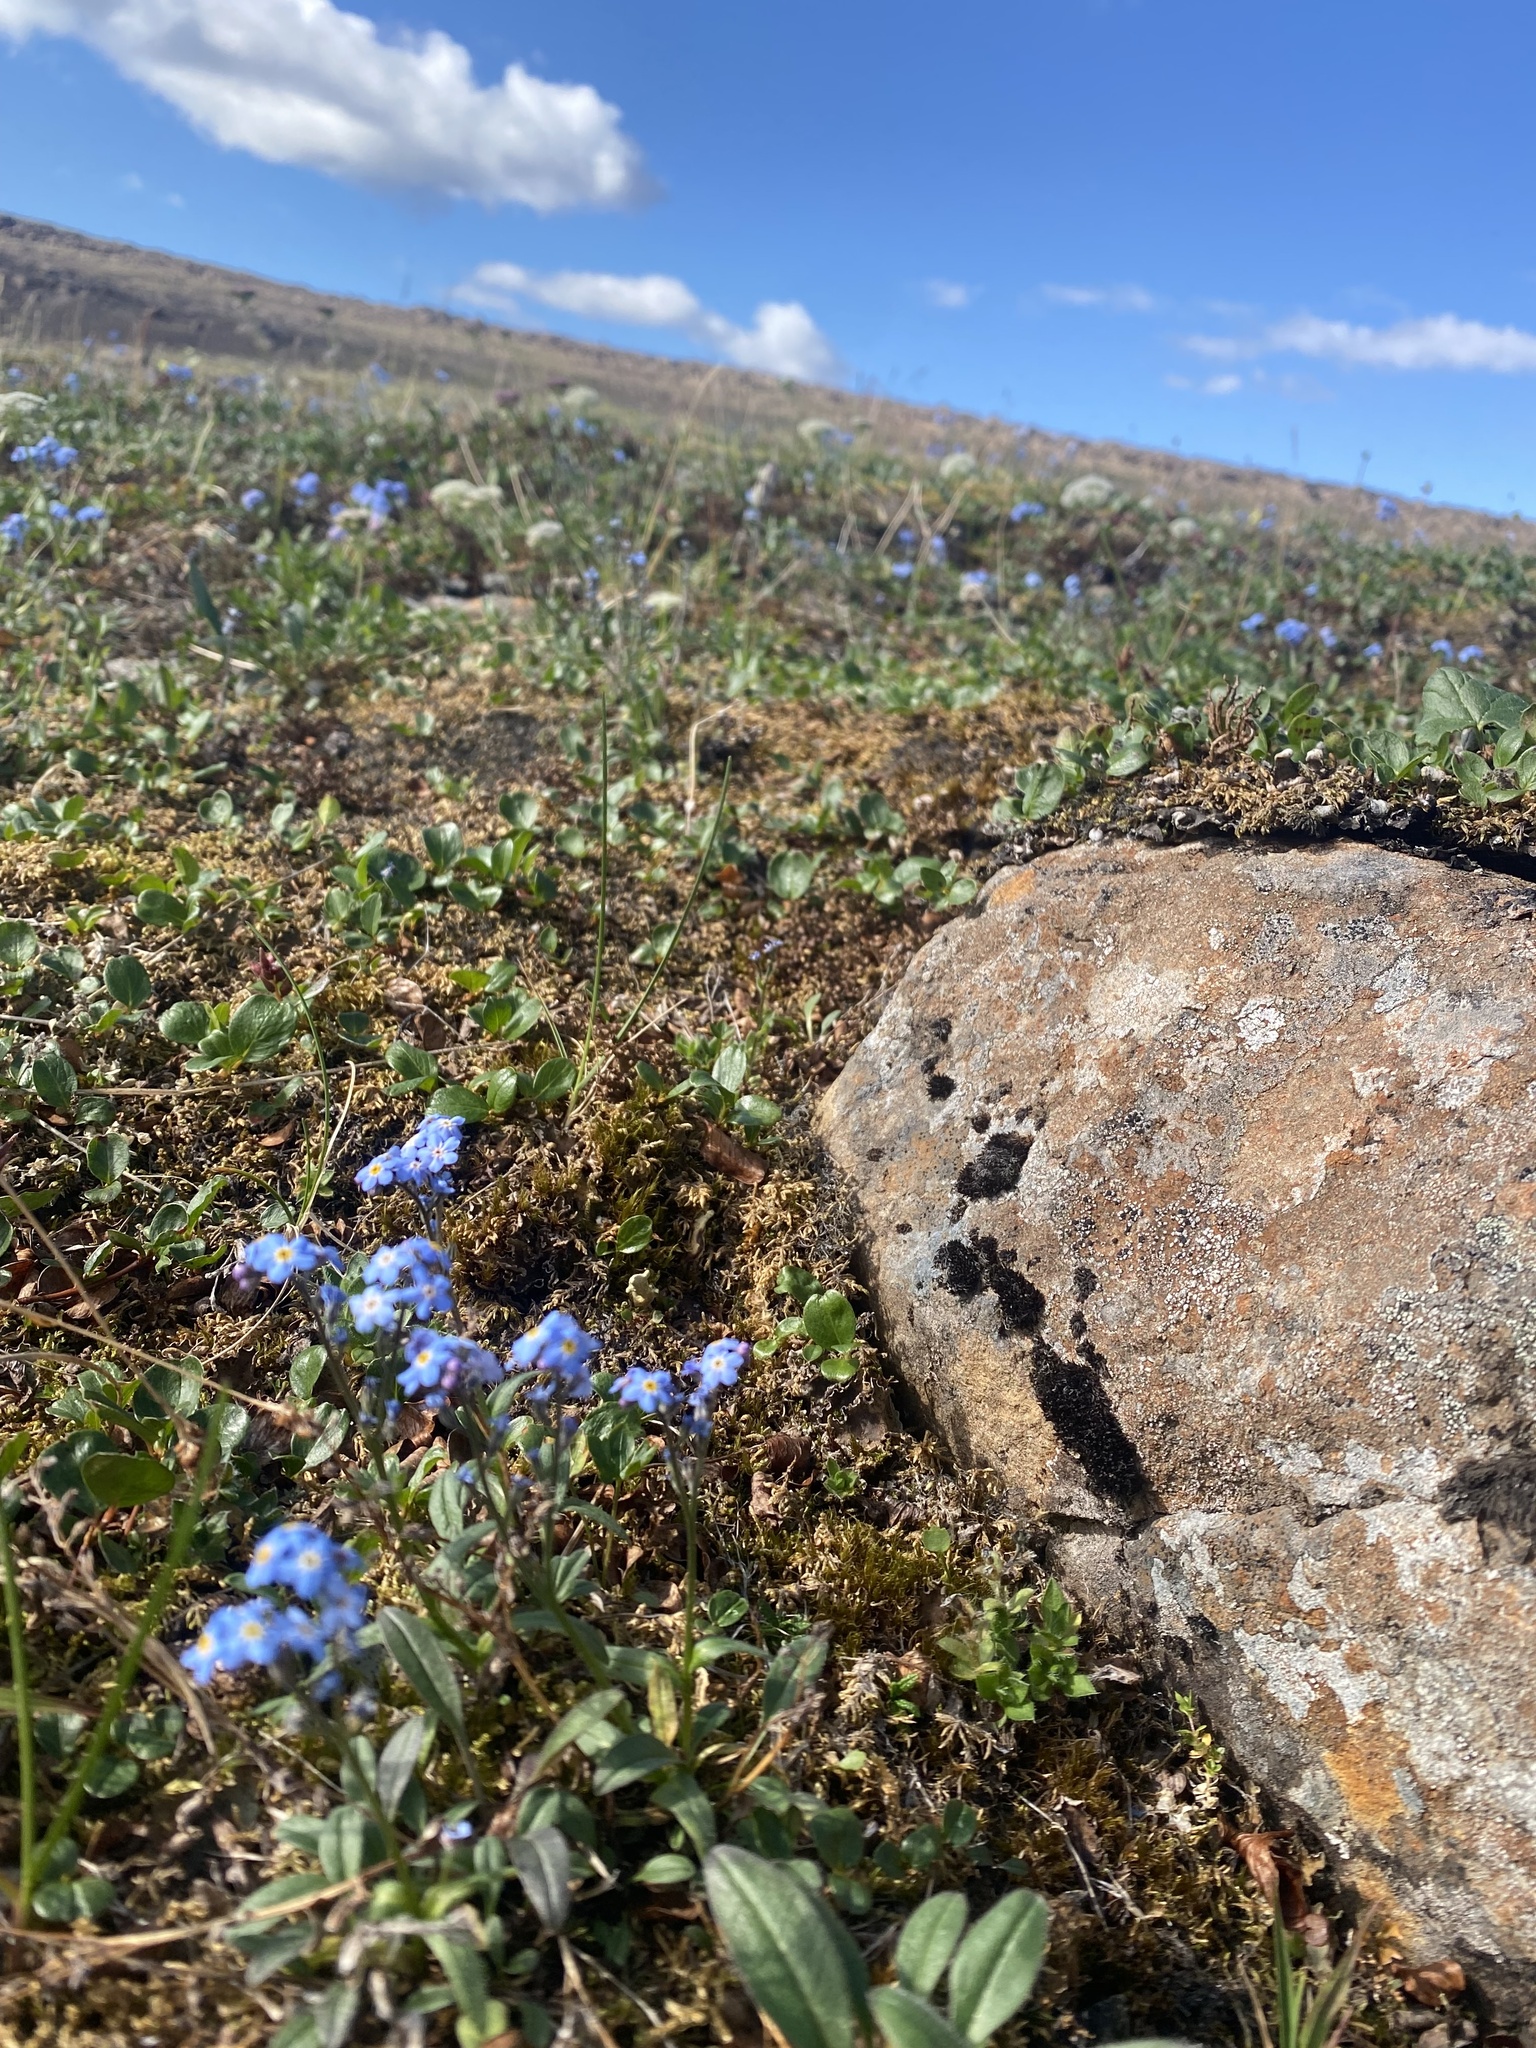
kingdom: Plantae
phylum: Tracheophyta
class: Magnoliopsida
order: Boraginales
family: Boraginaceae
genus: Myosotis
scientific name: Myosotis asiatica
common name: Asian forget-me-not
